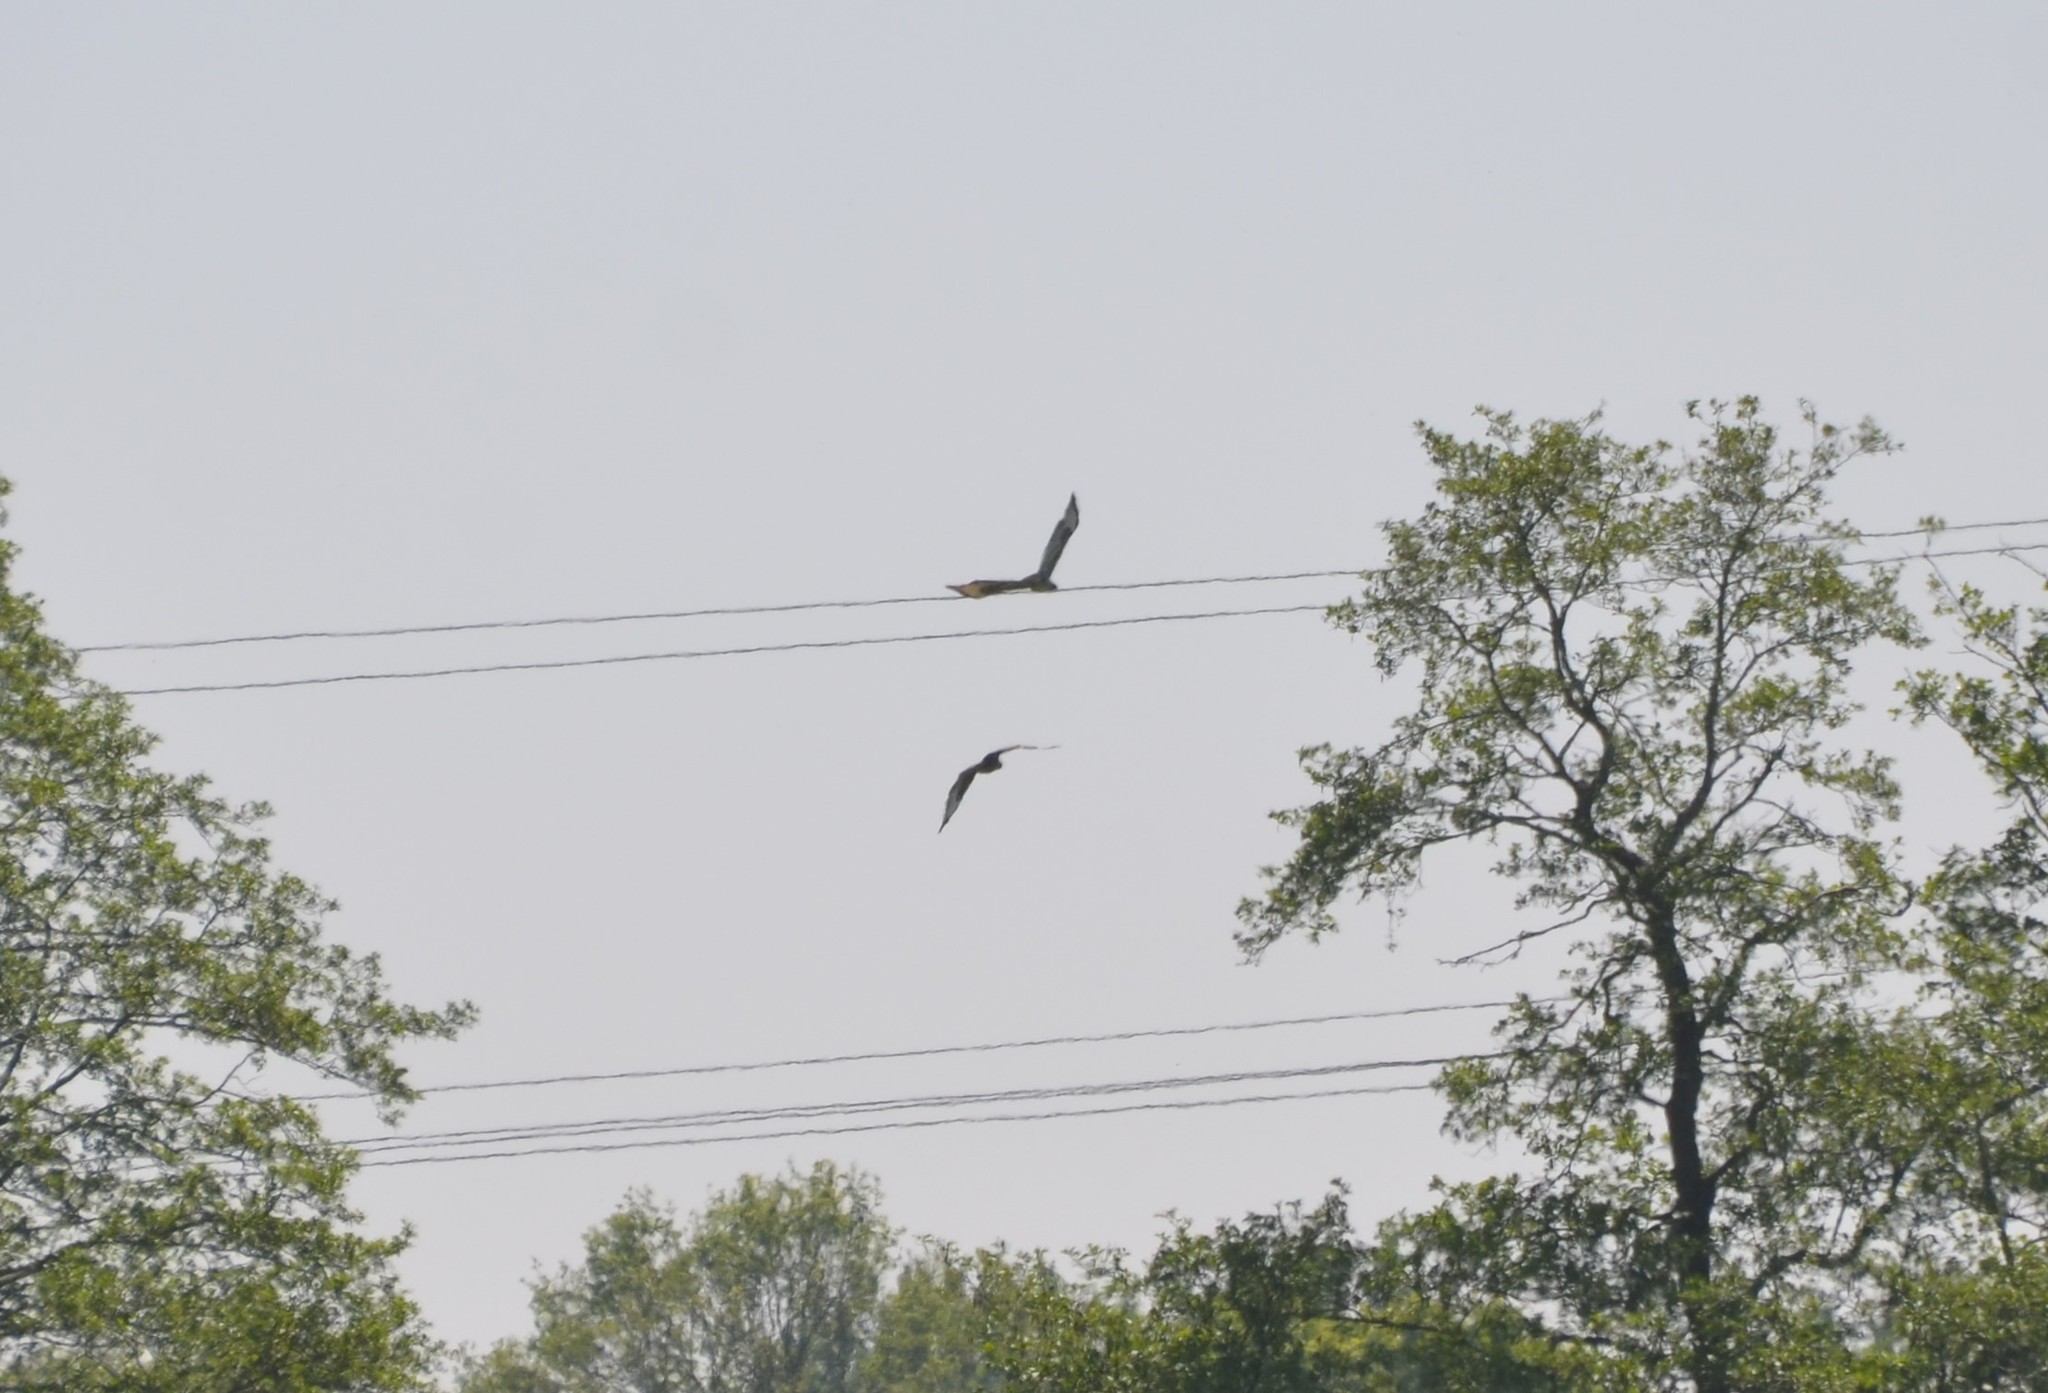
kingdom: Animalia
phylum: Chordata
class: Aves
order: Accipitriformes
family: Accipitridae
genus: Buteo
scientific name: Buteo buteo
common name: Common buzzard
